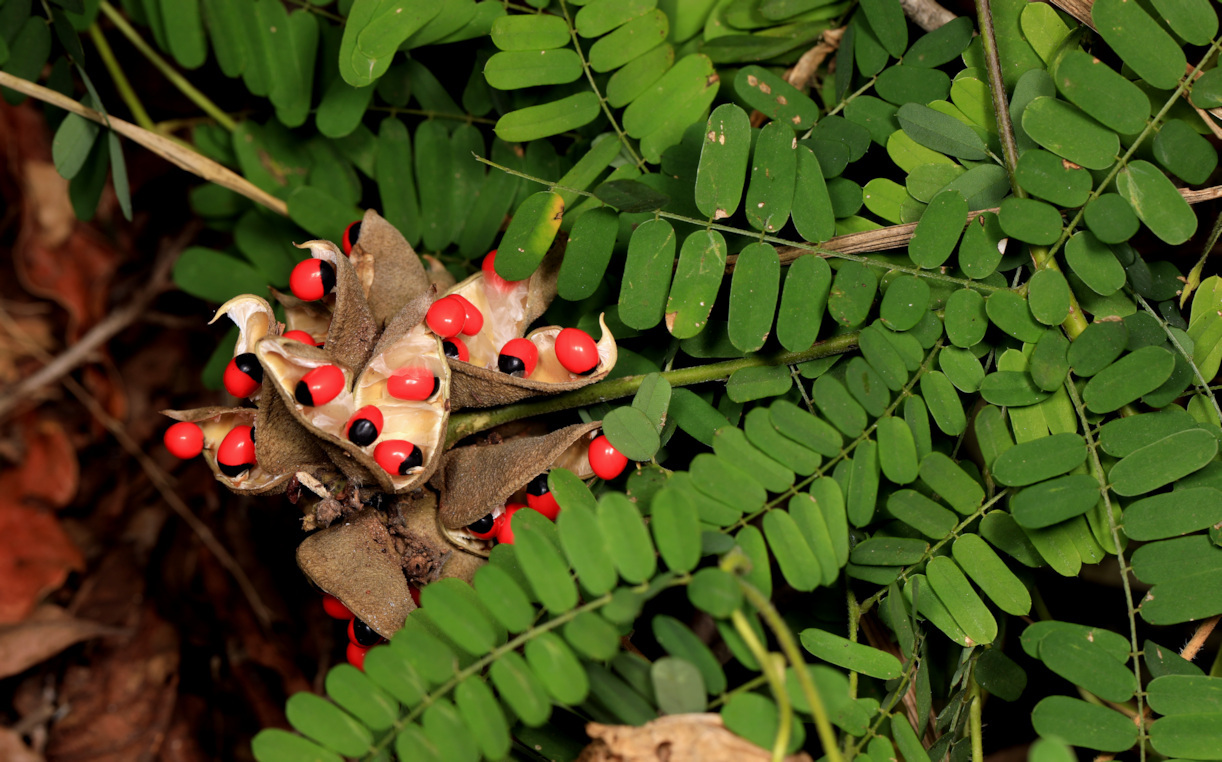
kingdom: Plantae
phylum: Tracheophyta
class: Magnoliopsida
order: Fabales
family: Fabaceae
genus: Abrus
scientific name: Abrus precatorius
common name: Rosarypea
